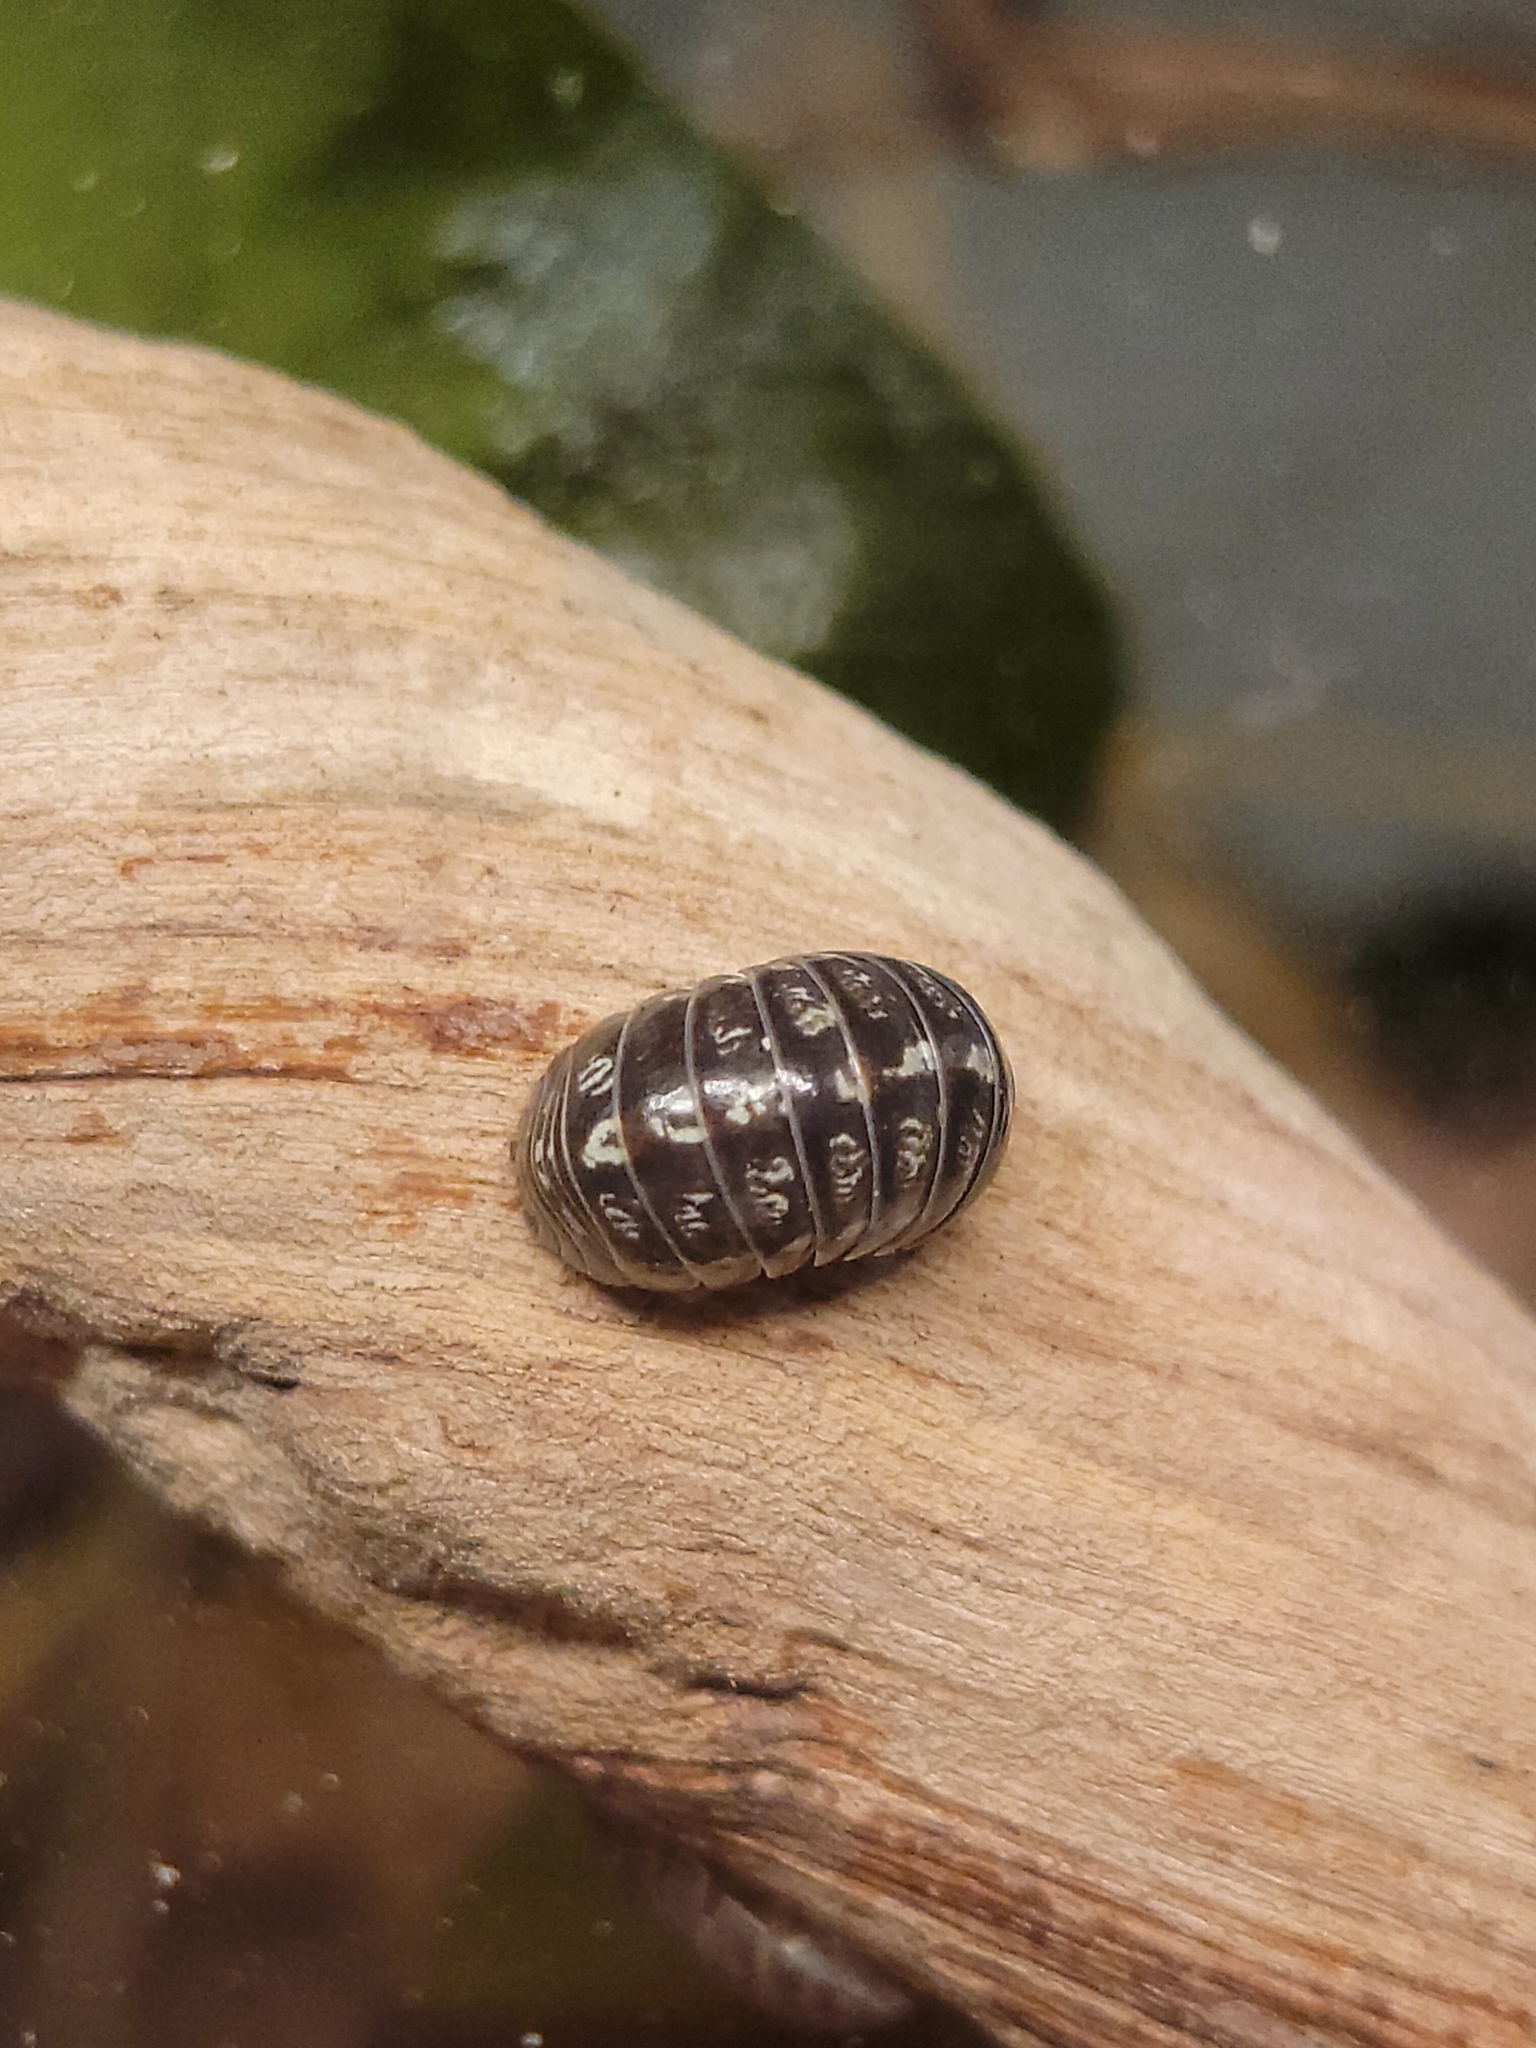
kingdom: Animalia
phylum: Arthropoda
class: Malacostraca
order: Isopoda
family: Armadillidiidae
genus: Armadillidium
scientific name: Armadillidium vulgare
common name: Common pill woodlouse
